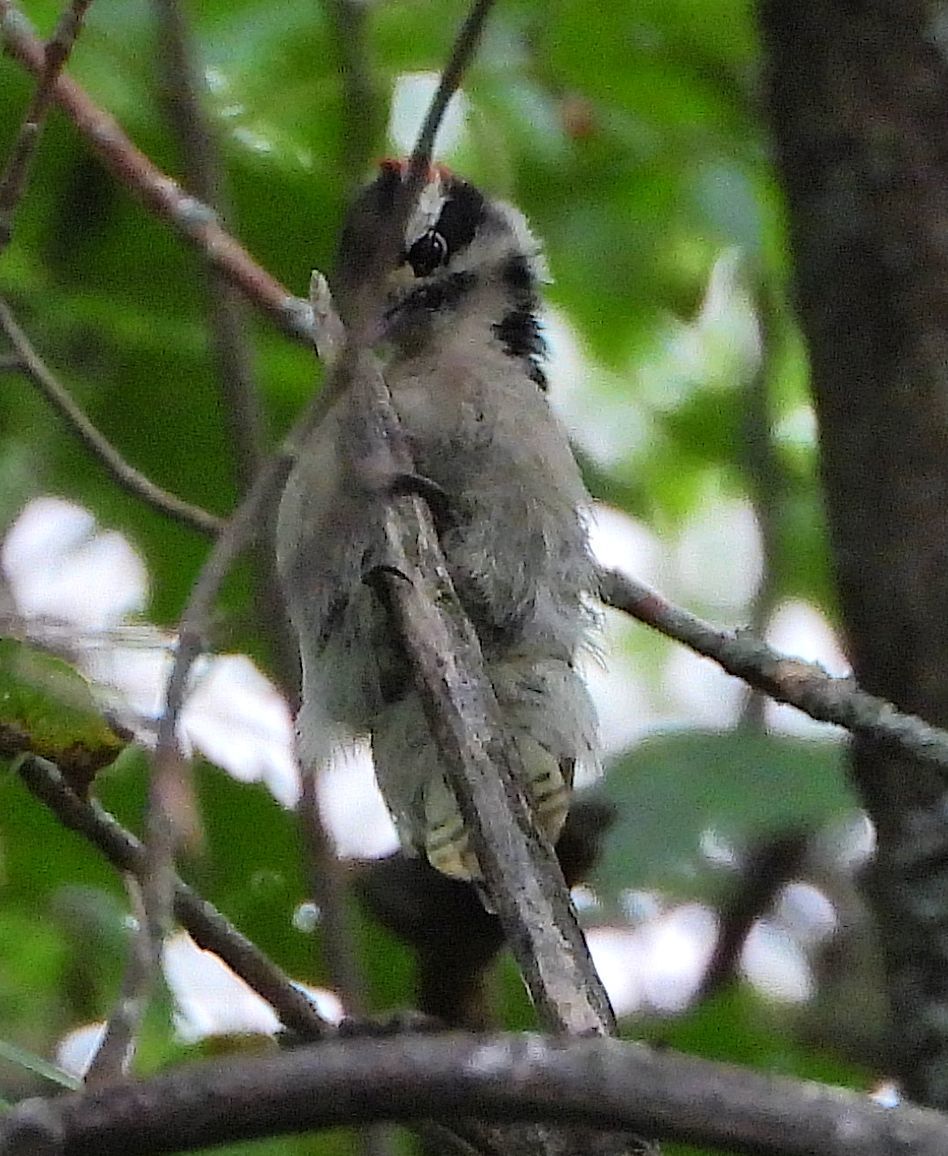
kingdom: Animalia
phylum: Chordata
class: Aves
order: Piciformes
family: Picidae
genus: Dryobates
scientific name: Dryobates pubescens
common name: Downy woodpecker
